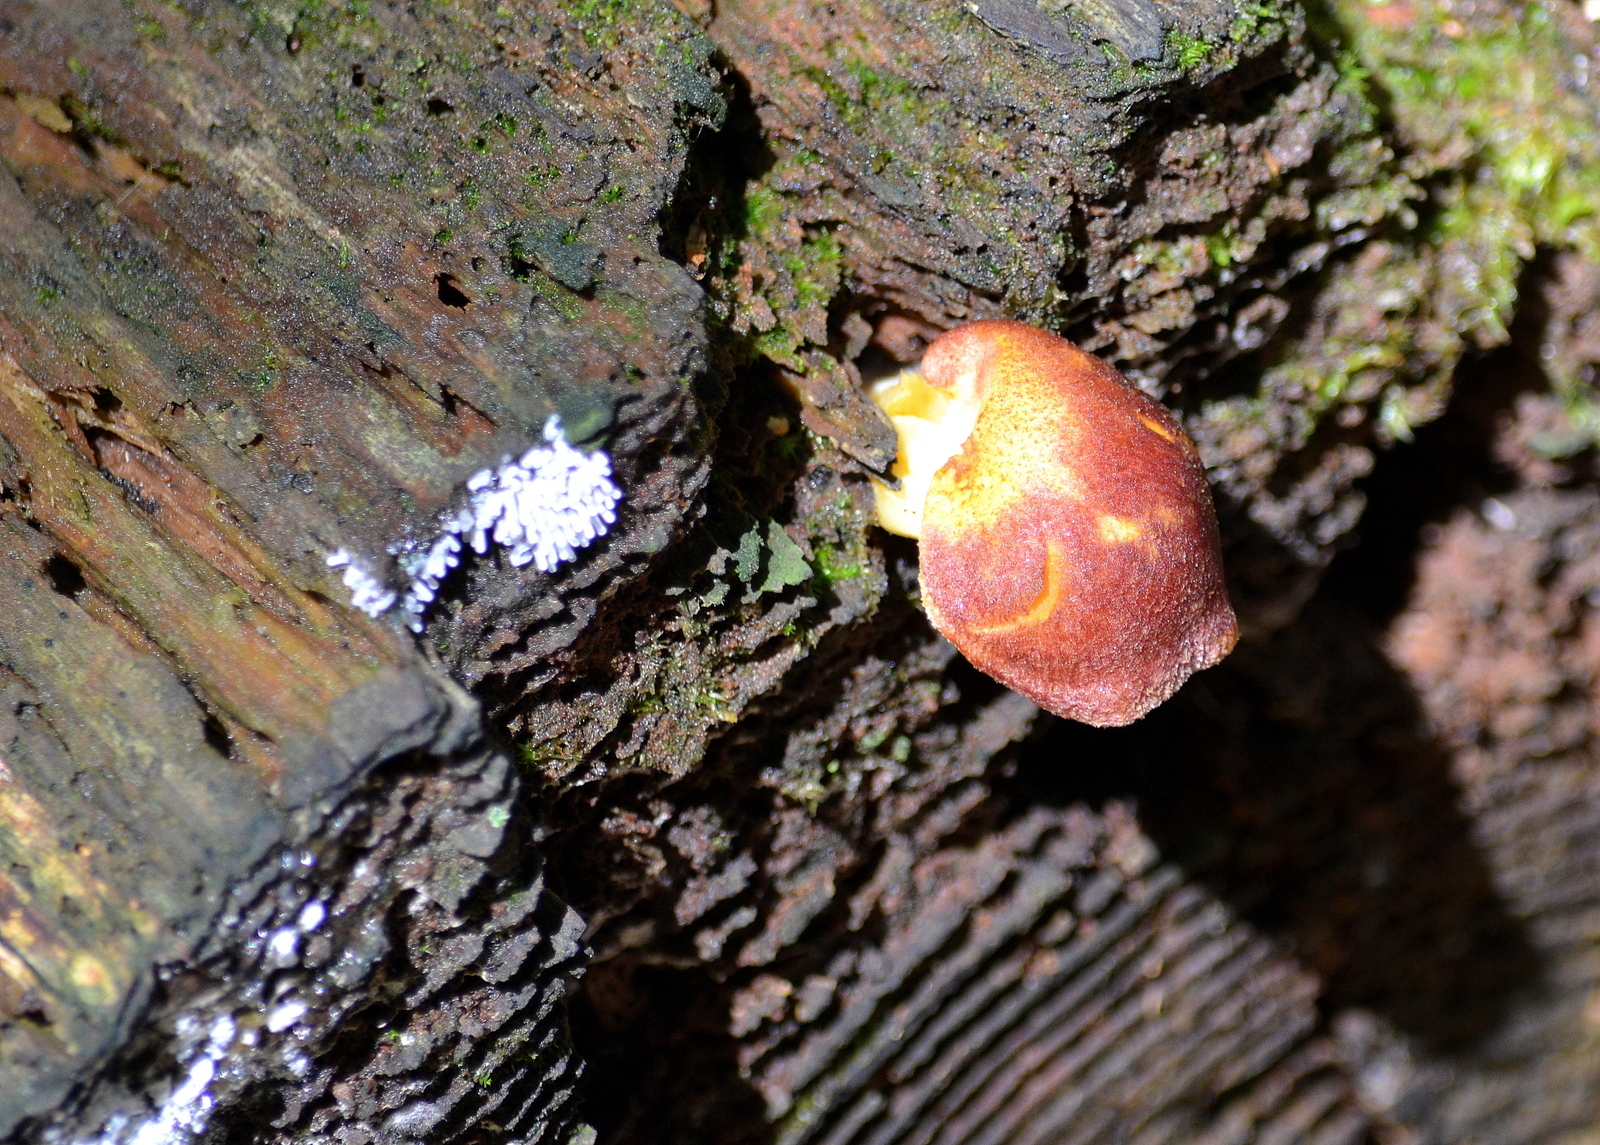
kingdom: Fungi
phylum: Basidiomycota
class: Agaricomycetes
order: Agaricales
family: Tricholomataceae
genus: Tricholomopsis
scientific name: Tricholomopsis rutilans
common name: Plums and custard
